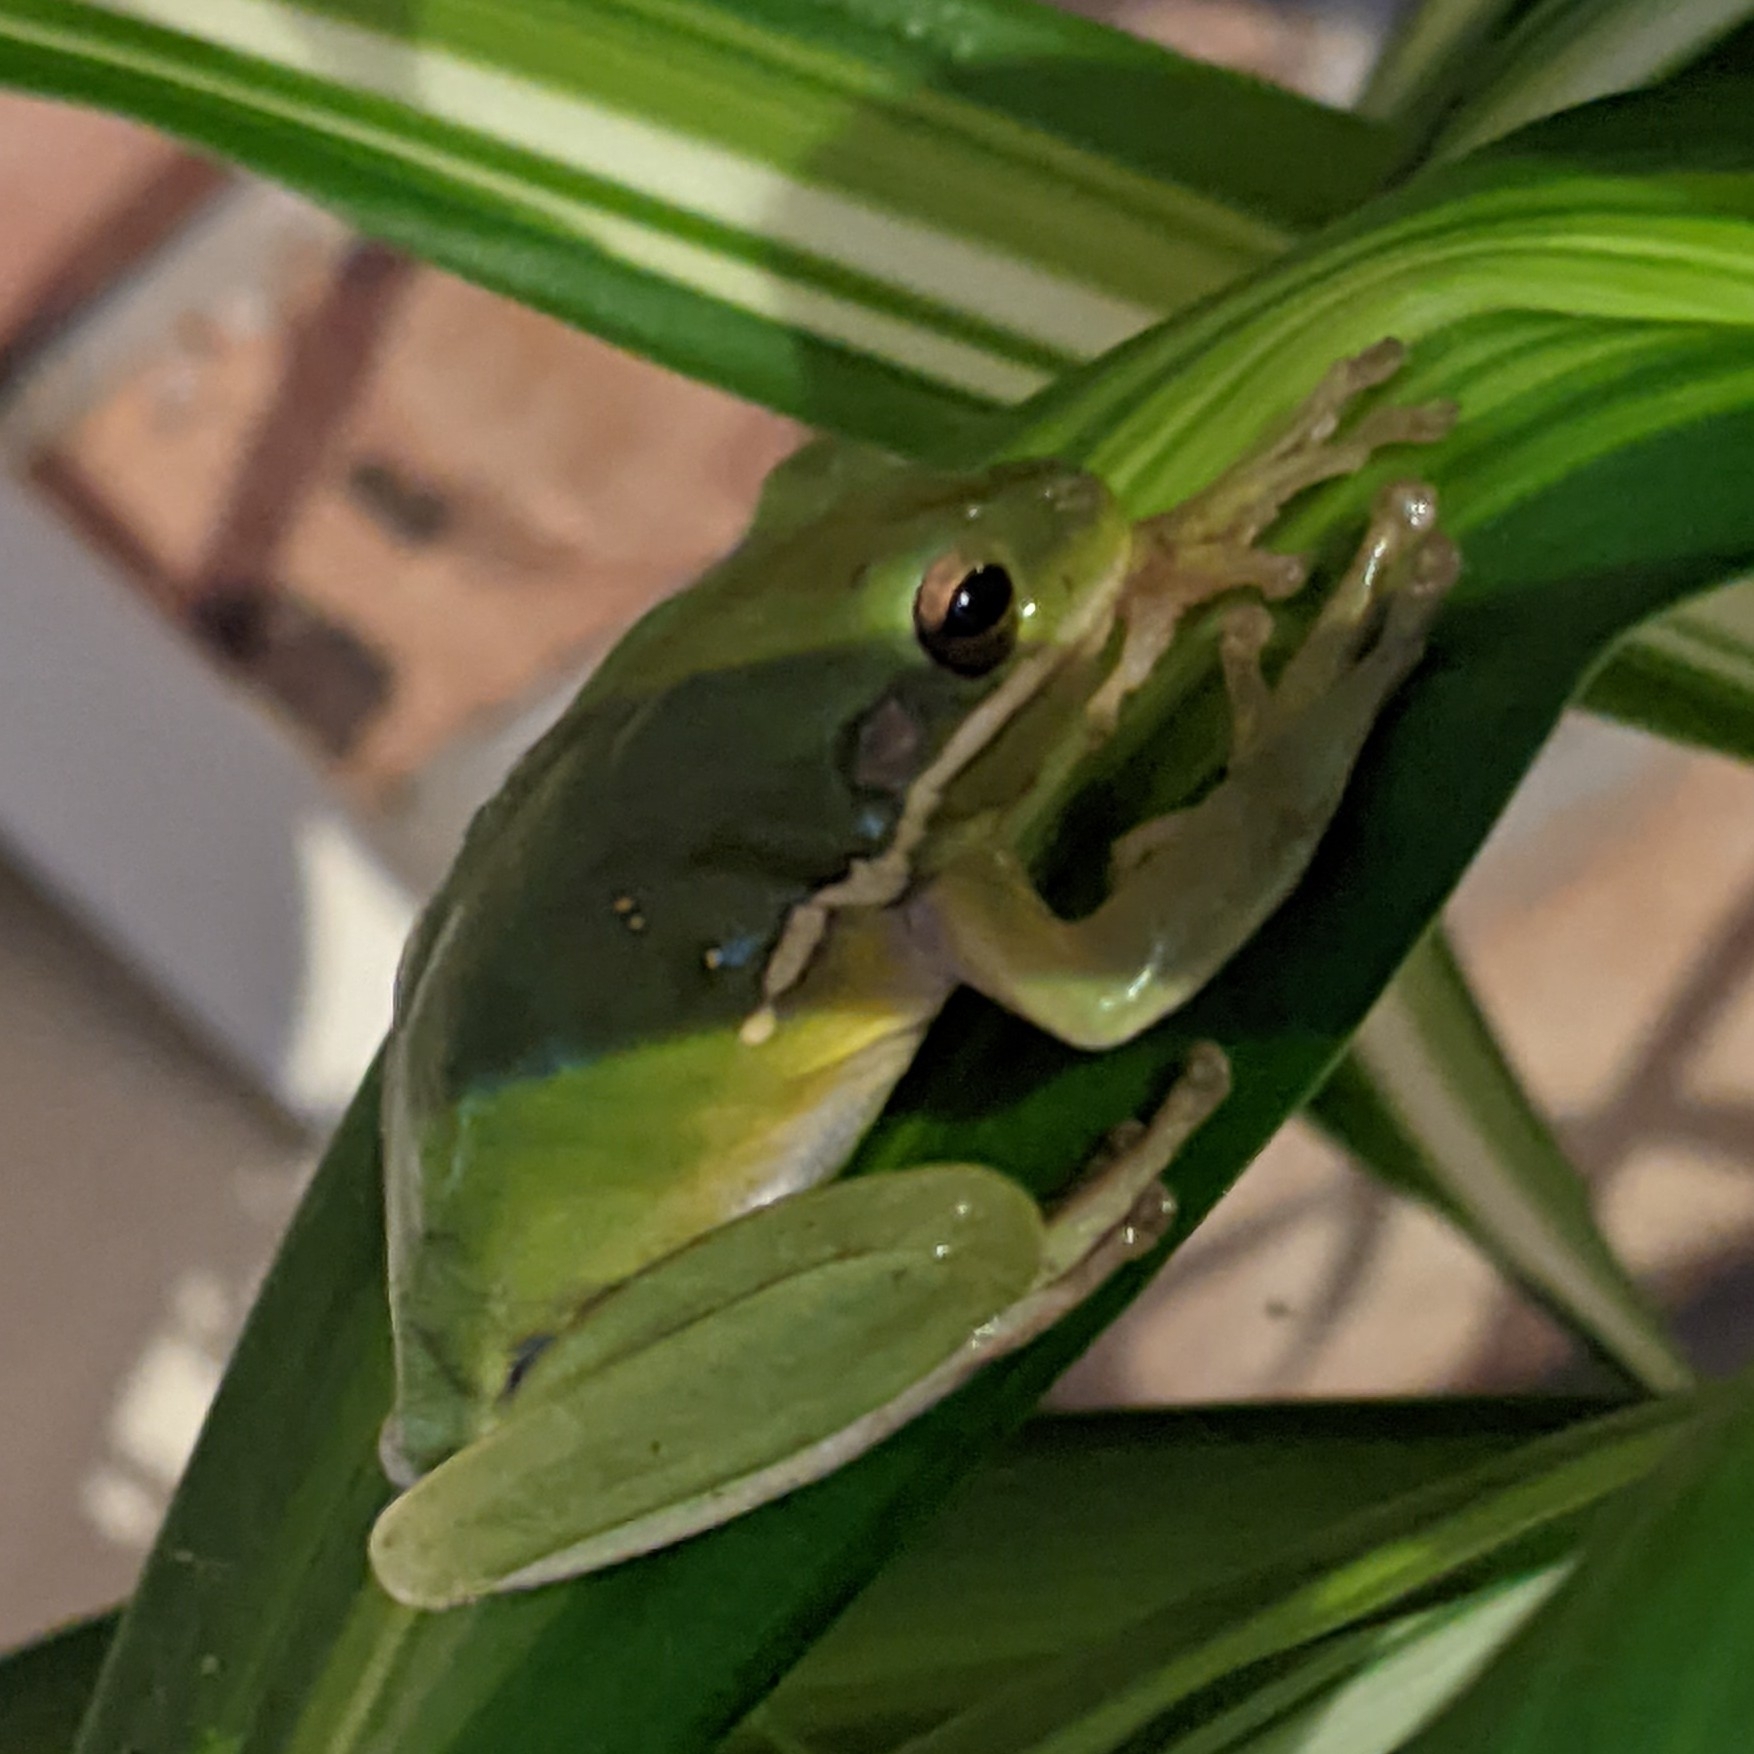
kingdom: Animalia
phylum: Chordata
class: Amphibia
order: Anura
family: Hylidae
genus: Dryophytes
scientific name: Dryophytes cinereus
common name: Green treefrog
